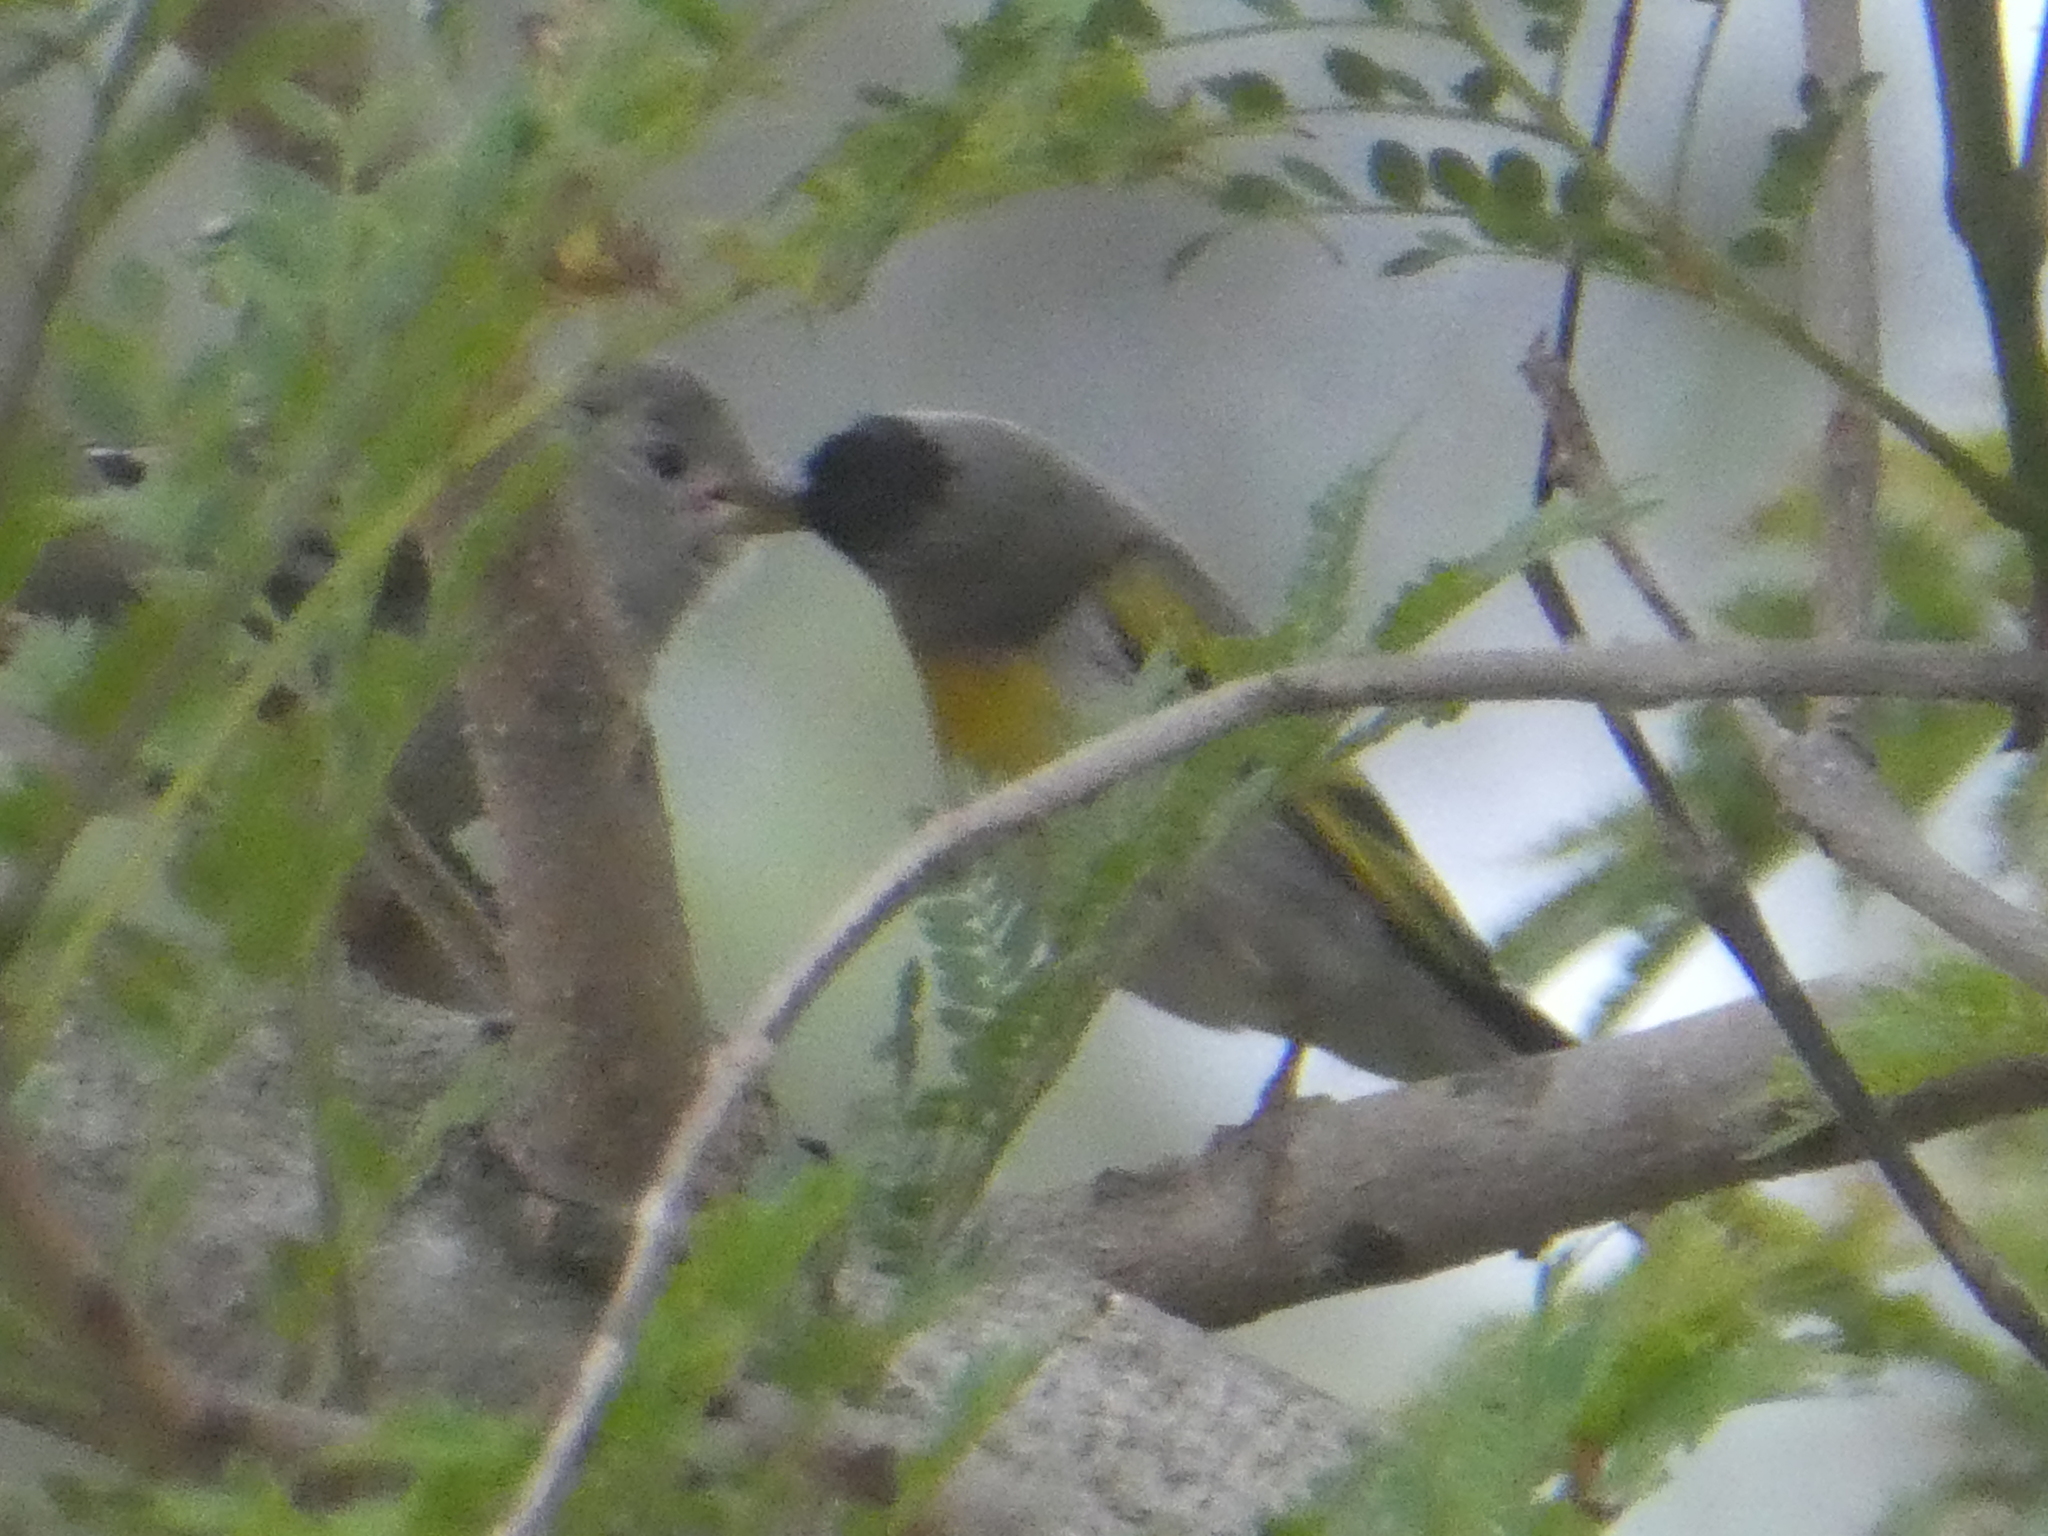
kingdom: Animalia
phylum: Chordata
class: Aves
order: Passeriformes
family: Fringillidae
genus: Spinus
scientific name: Spinus lawrencei
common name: Lawrence's goldfinch
